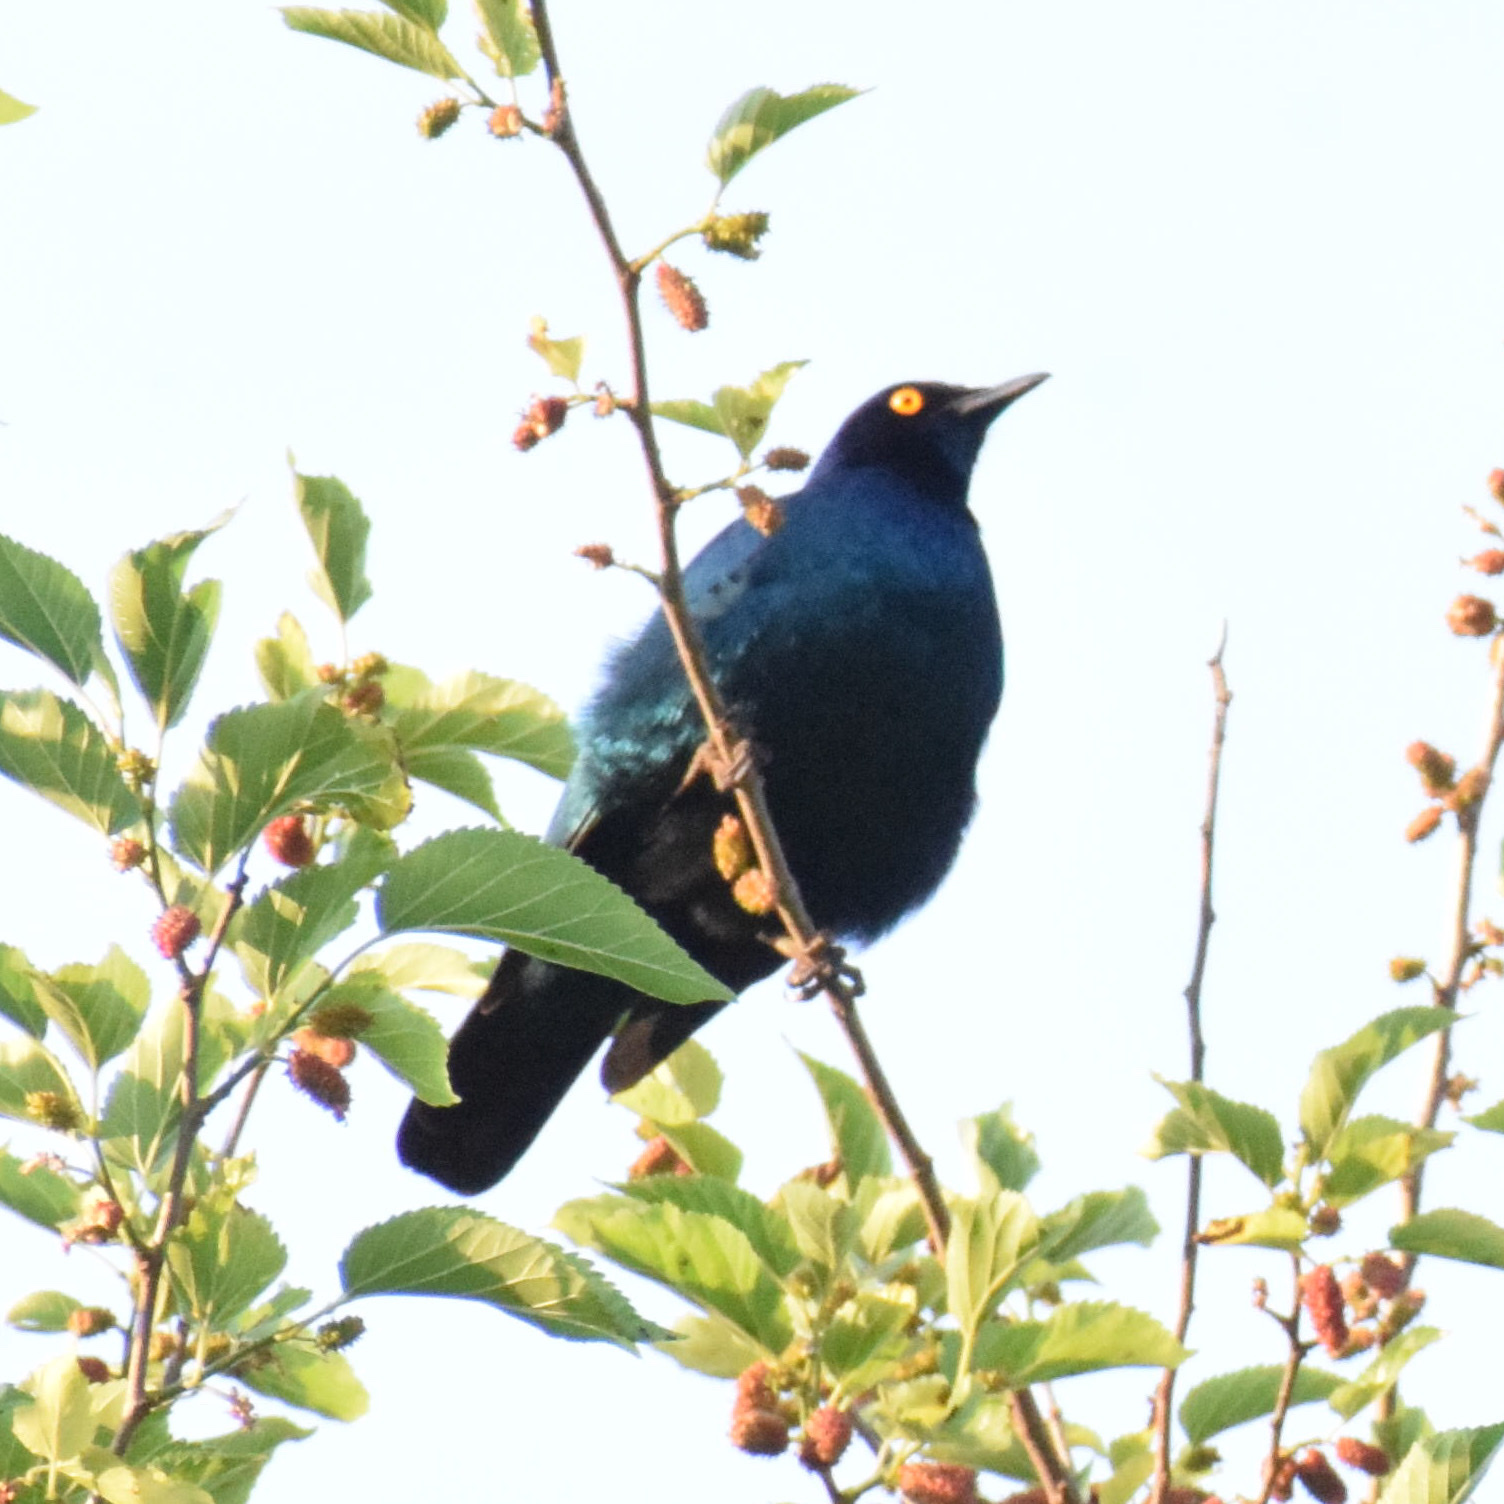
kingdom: Animalia
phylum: Chordata
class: Aves
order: Passeriformes
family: Sturnidae
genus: Lamprotornis
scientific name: Lamprotornis nitens
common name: Cape starling
